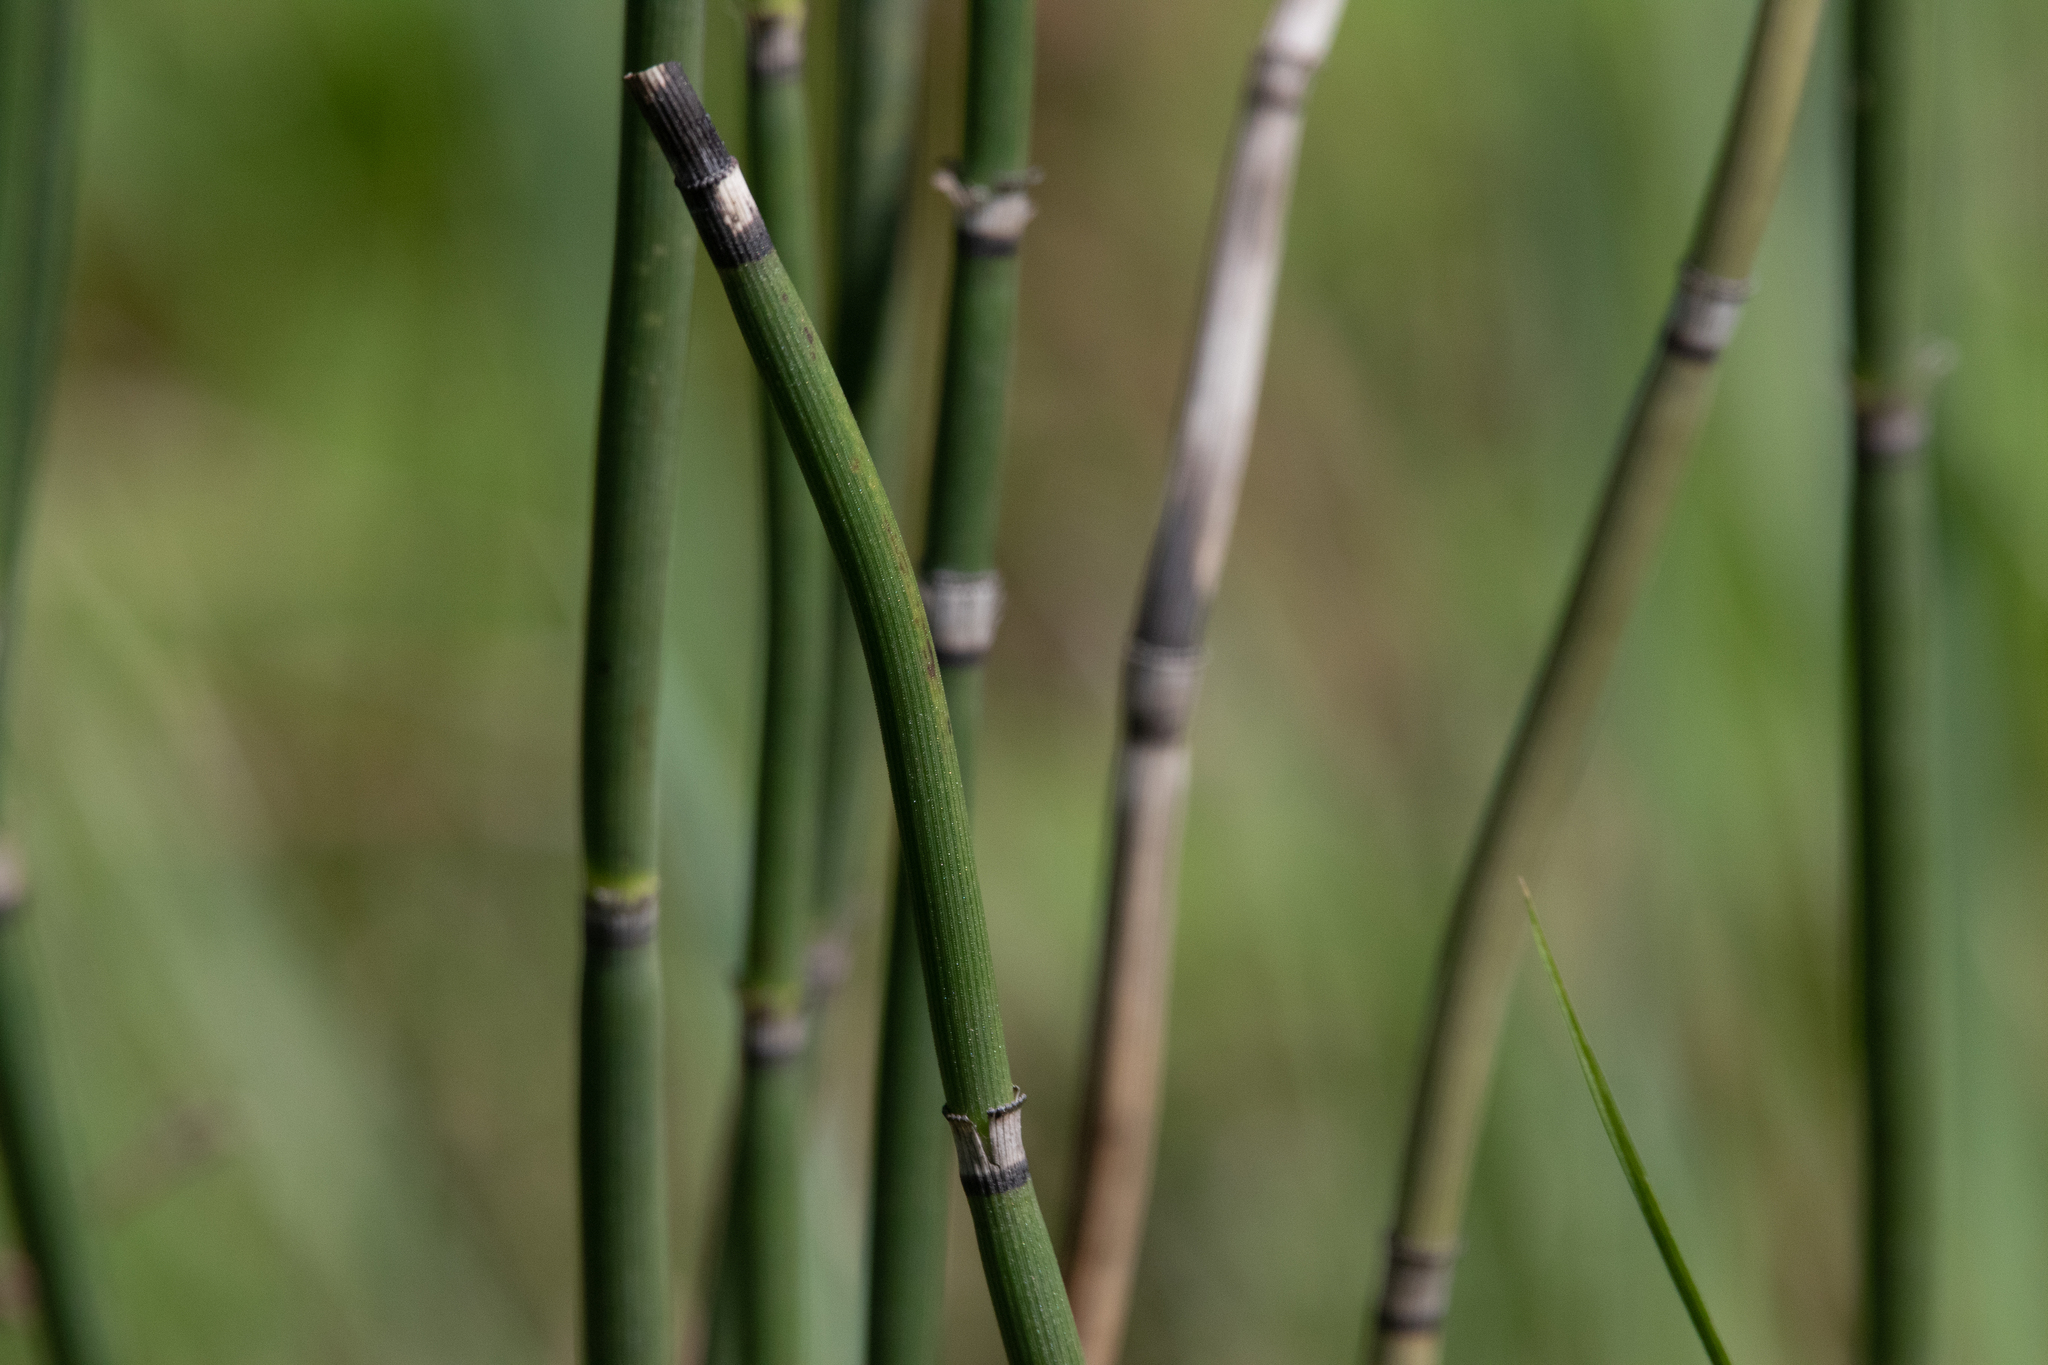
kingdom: Plantae
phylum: Tracheophyta
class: Polypodiopsida
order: Equisetales
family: Equisetaceae
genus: Equisetum
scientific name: Equisetum hyemale
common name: Rough horsetail
